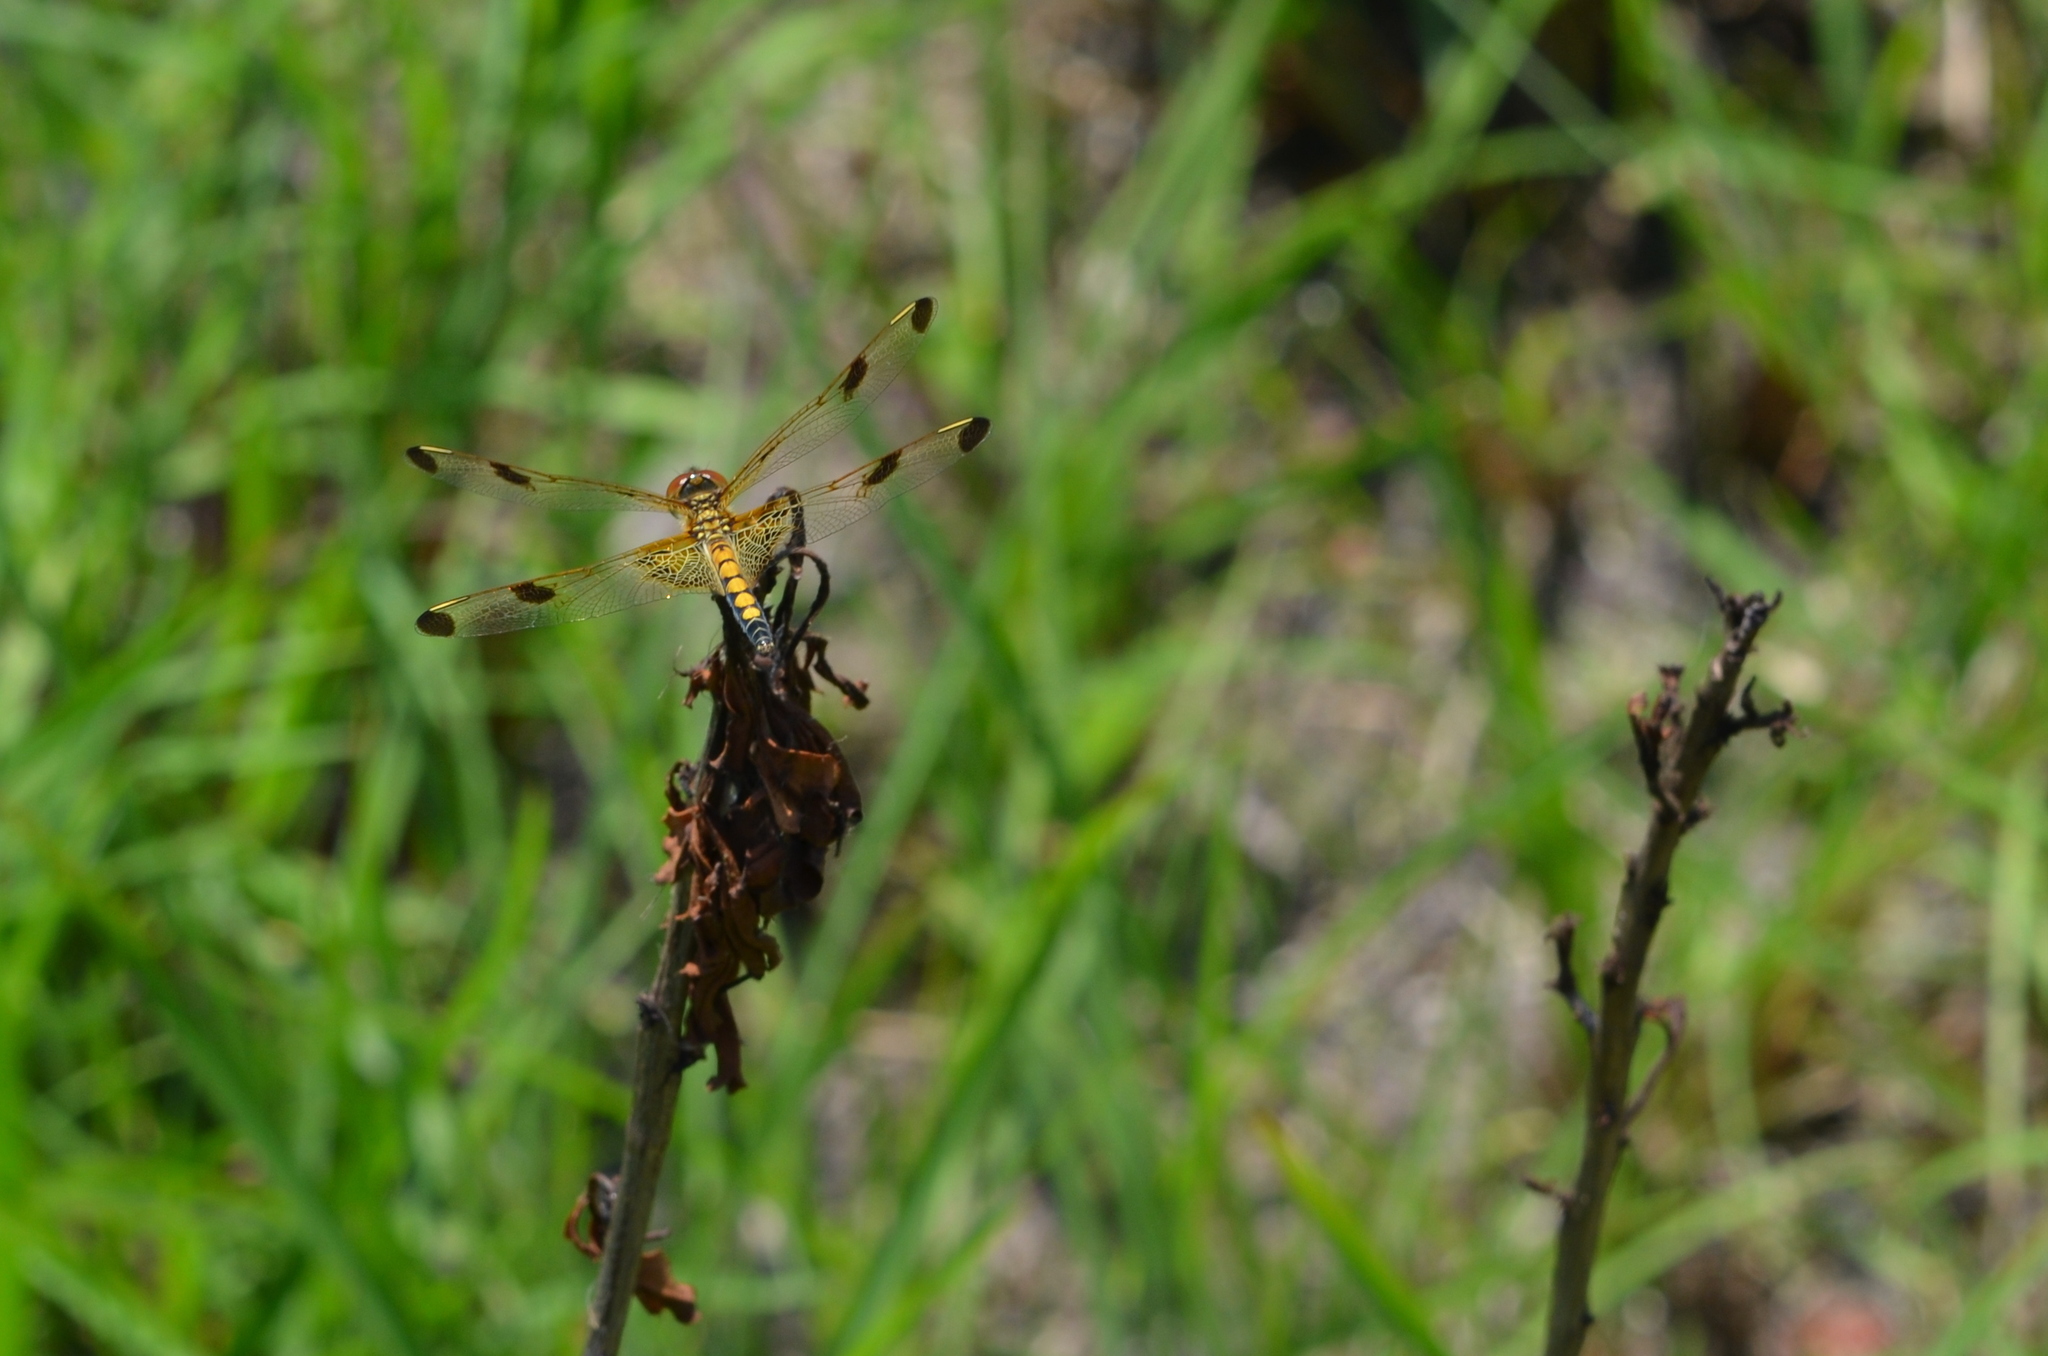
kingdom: Animalia
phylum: Arthropoda
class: Insecta
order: Odonata
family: Libellulidae
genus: Celithemis
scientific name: Celithemis elisa
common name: Calico pennant
